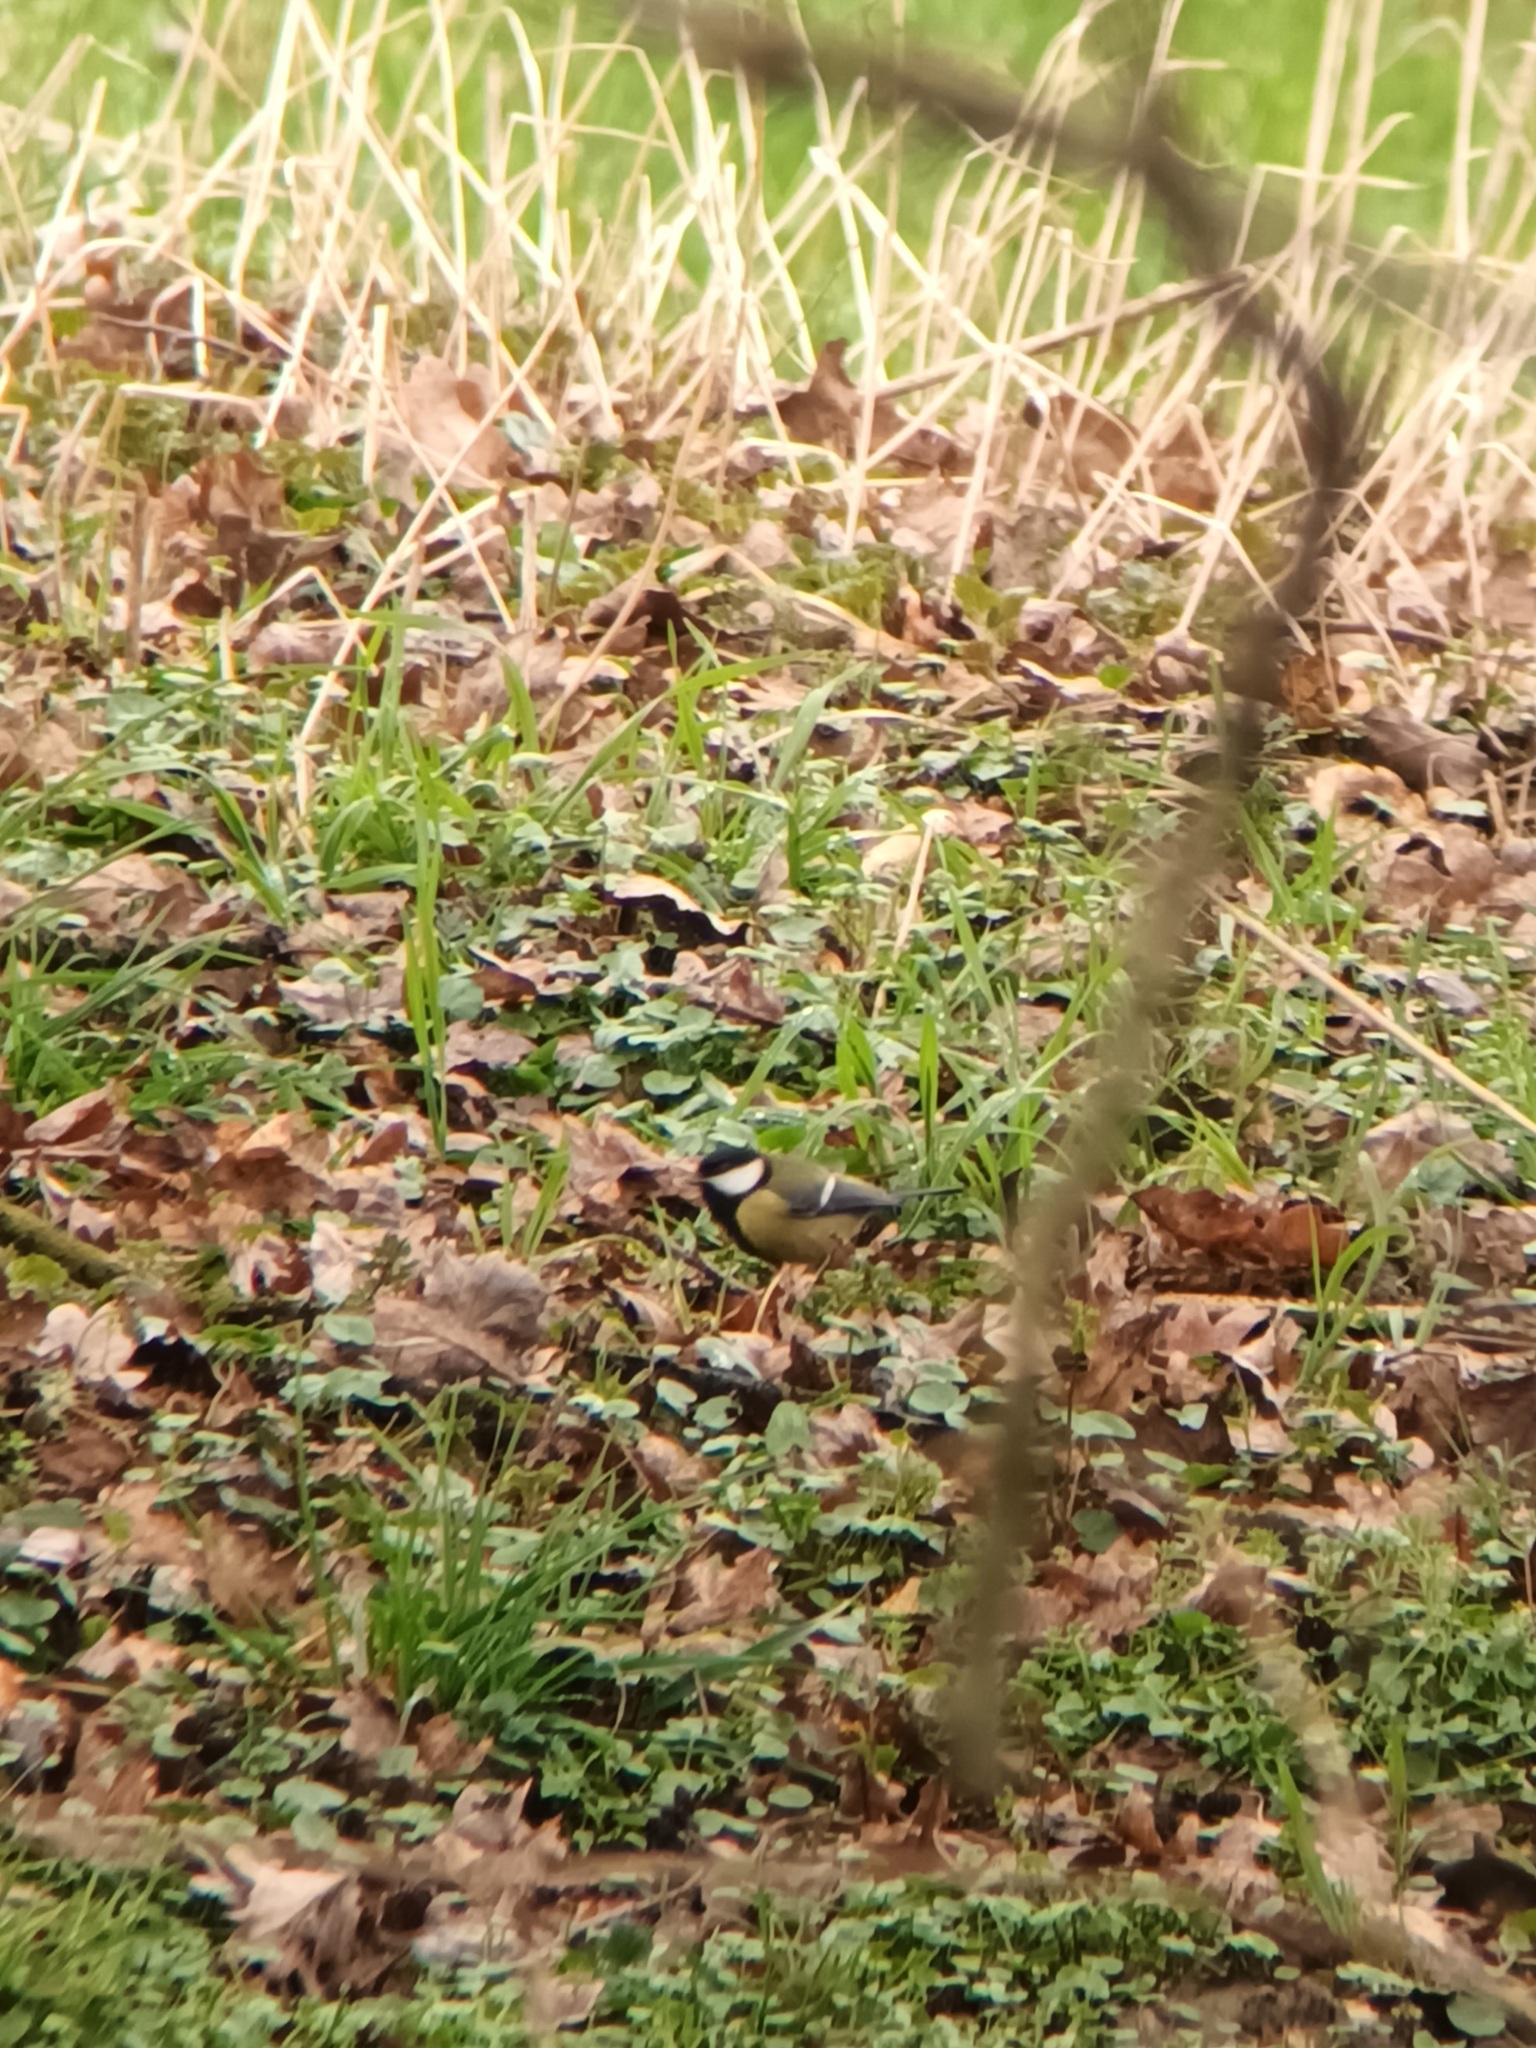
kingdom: Animalia
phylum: Chordata
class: Aves
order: Passeriformes
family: Paridae
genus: Parus
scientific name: Parus major
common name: Great tit
